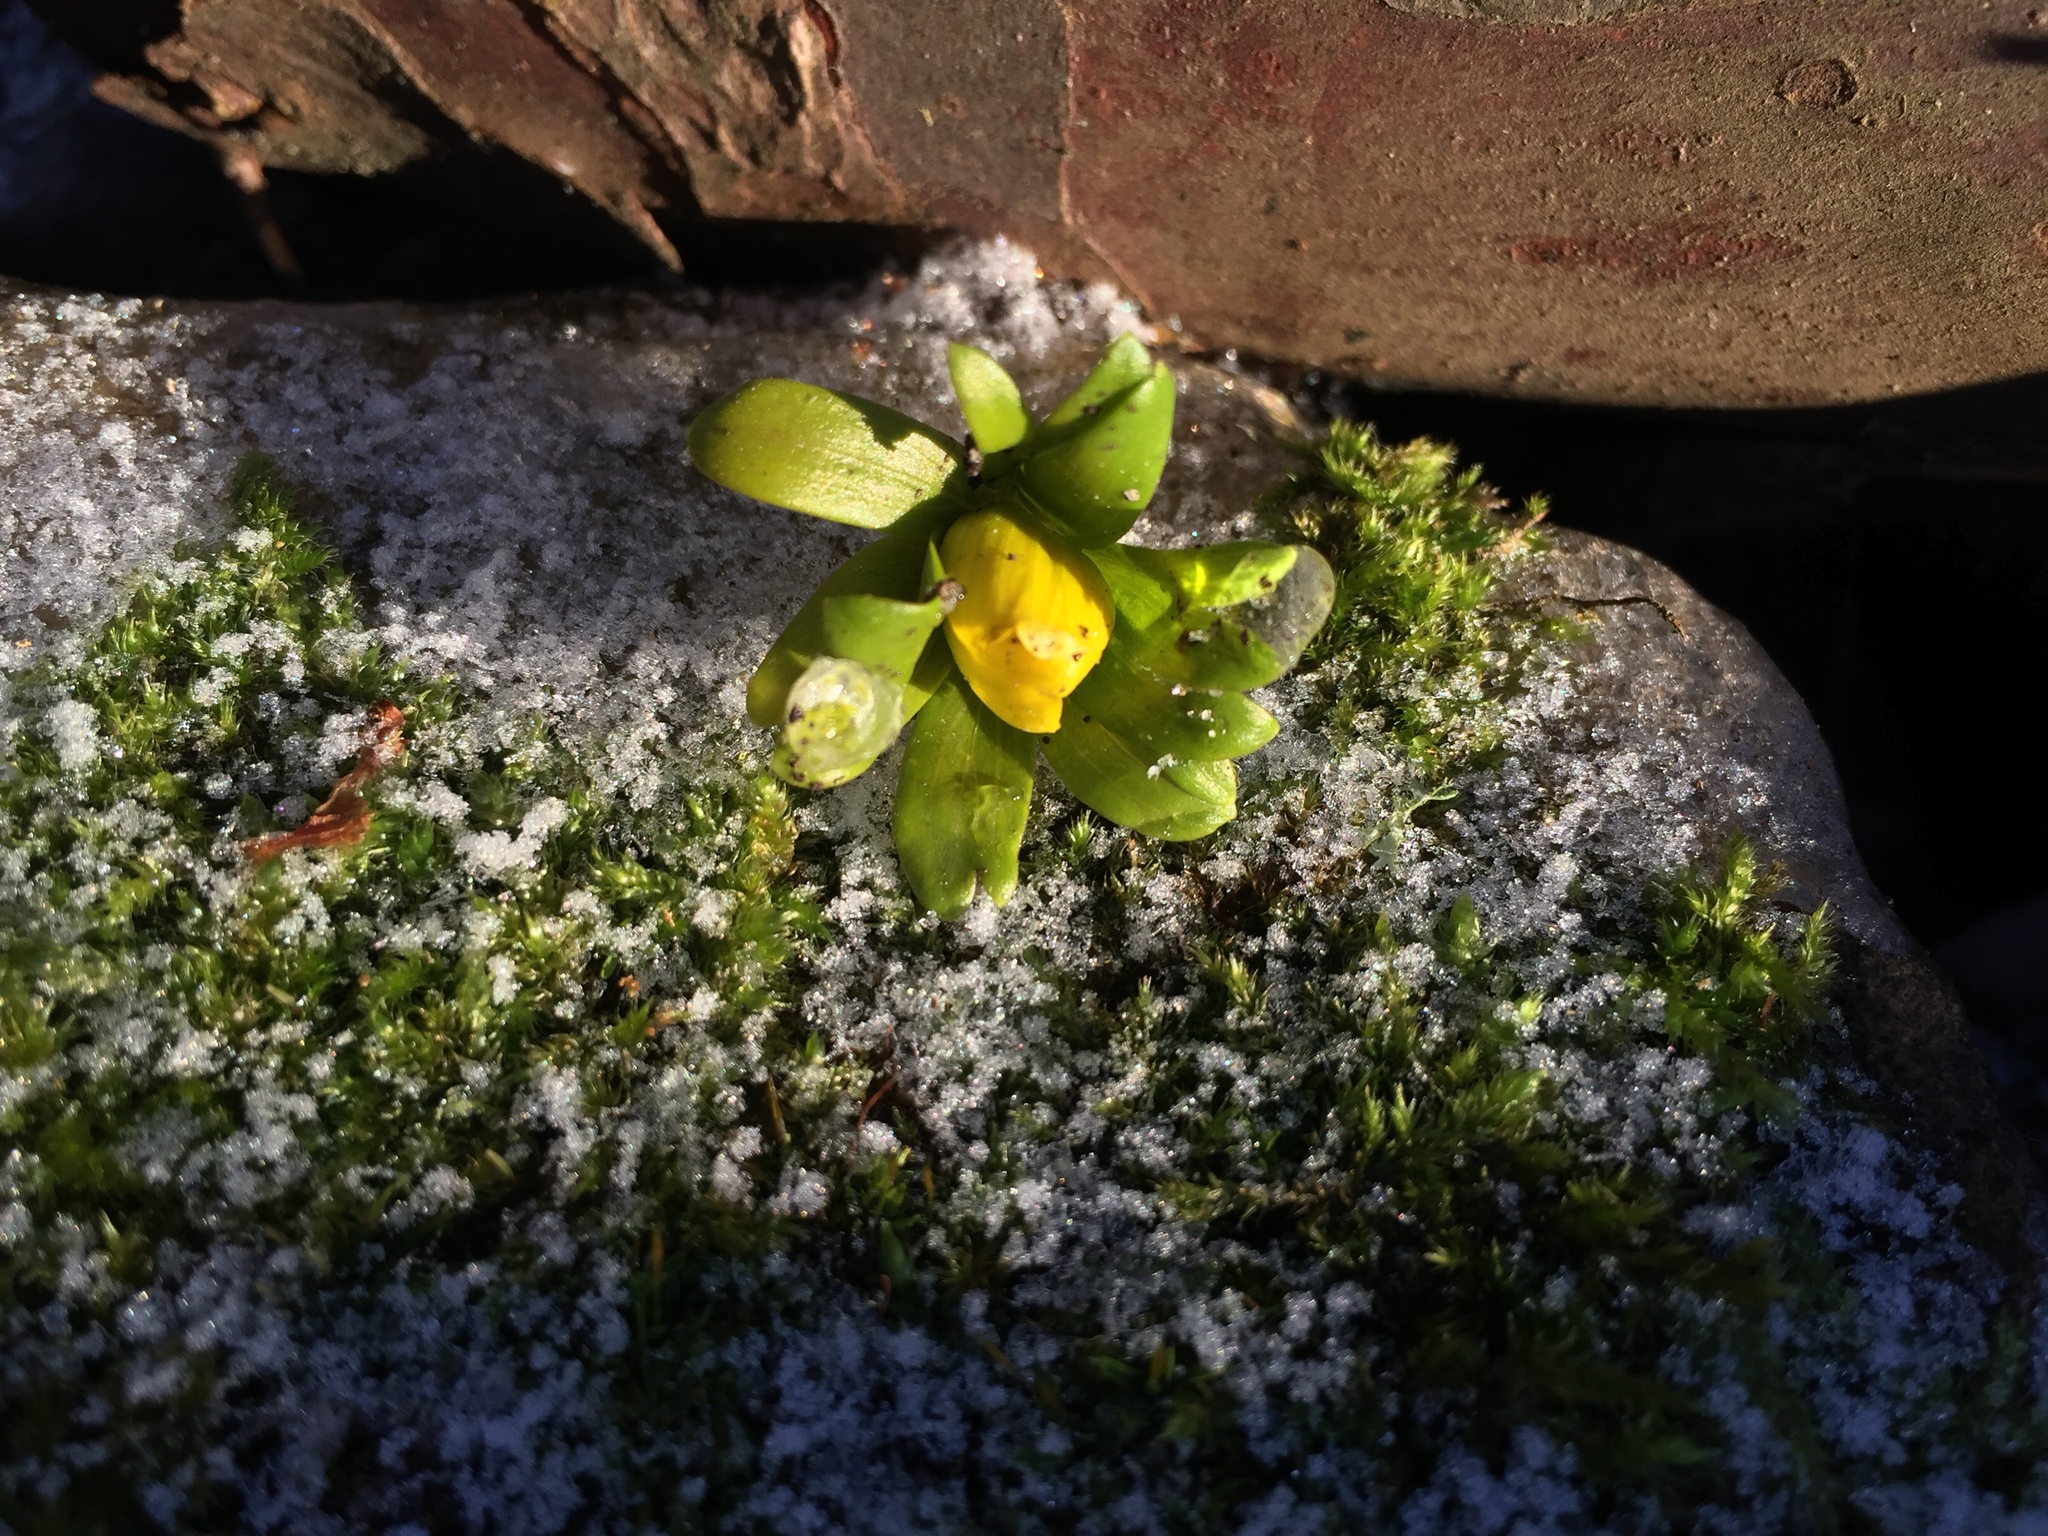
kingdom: Plantae
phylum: Tracheophyta
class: Magnoliopsida
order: Ranunculales
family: Ranunculaceae
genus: Eranthis
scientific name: Eranthis hyemalis
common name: Winter aconite
